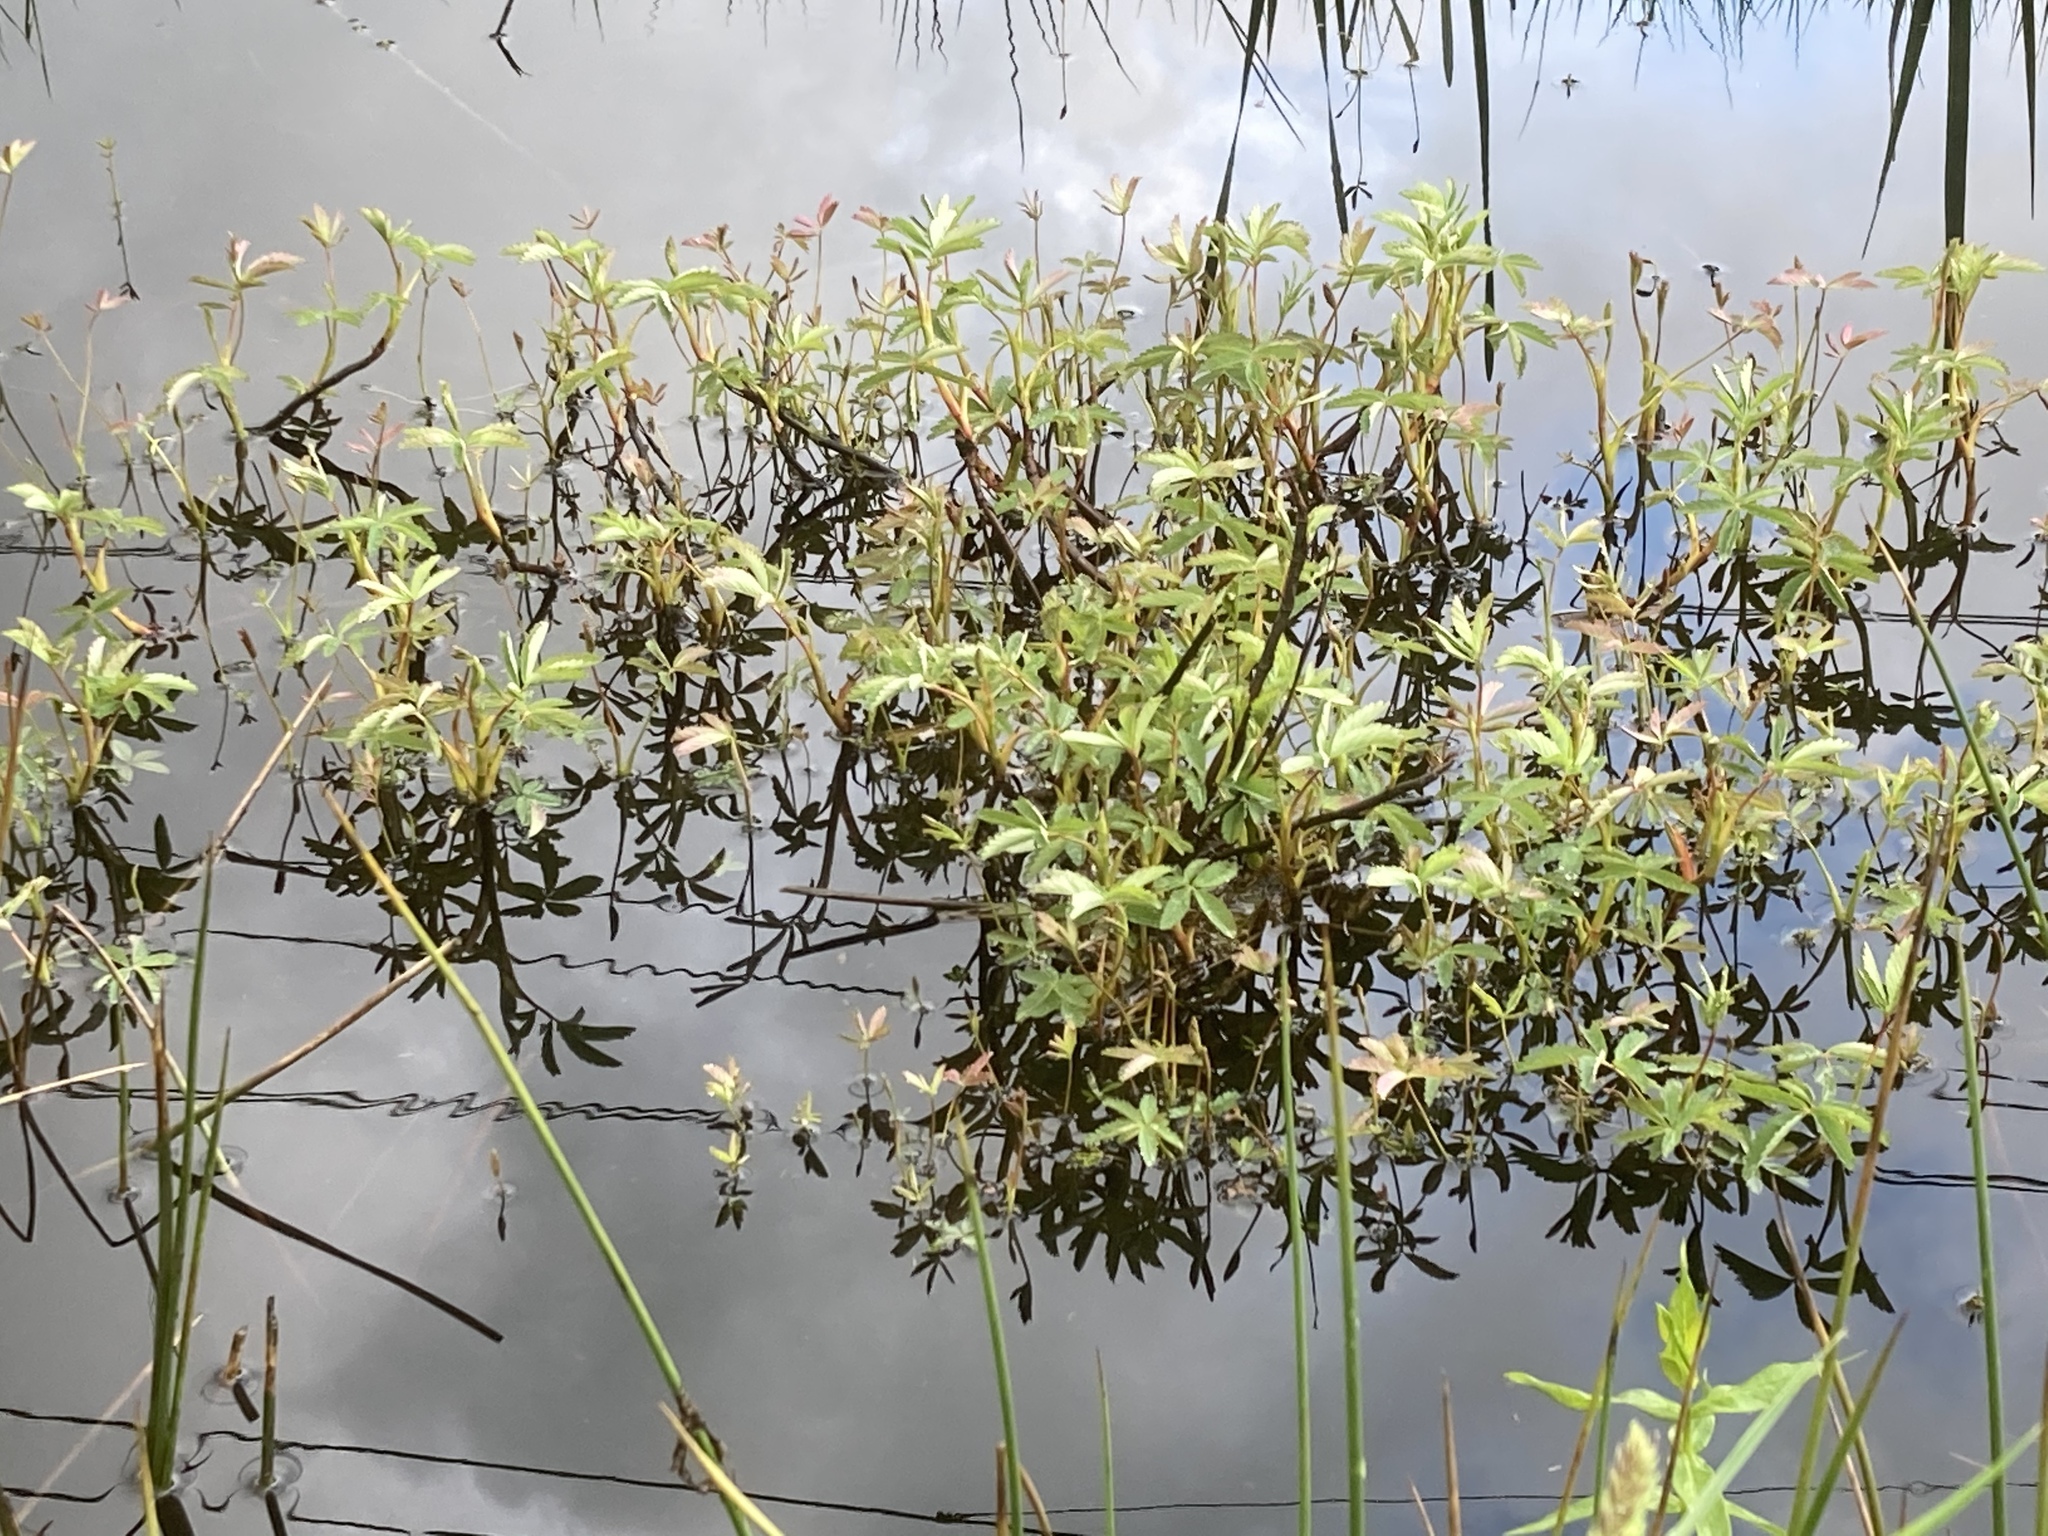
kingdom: Plantae
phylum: Tracheophyta
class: Magnoliopsida
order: Rosales
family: Rosaceae
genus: Comarum
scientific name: Comarum palustre
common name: Marsh cinquefoil
